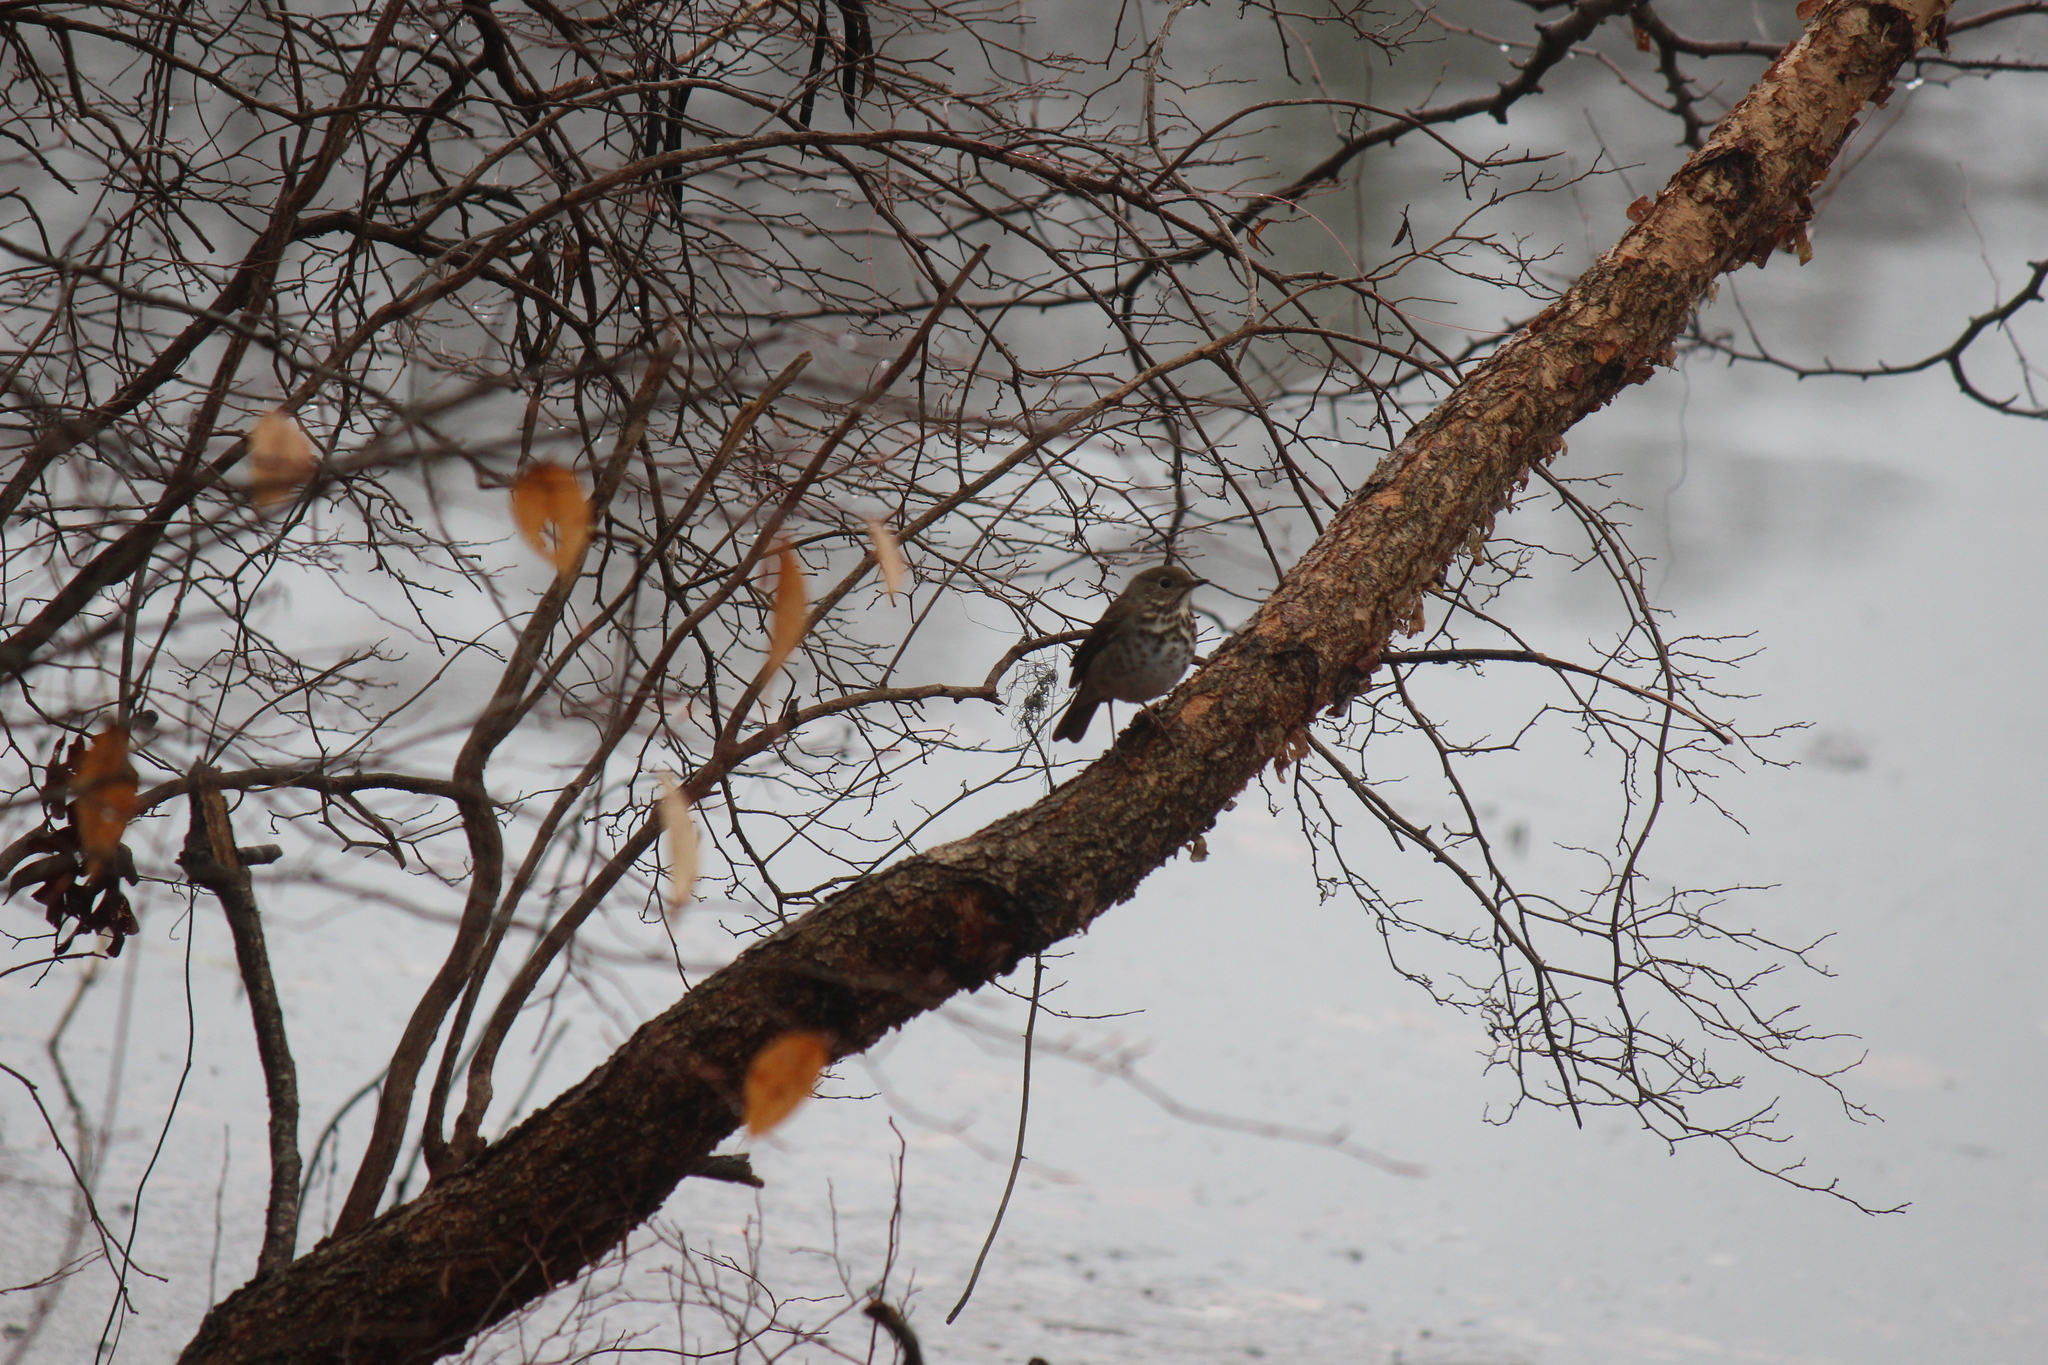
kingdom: Animalia
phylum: Chordata
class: Aves
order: Passeriformes
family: Turdidae
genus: Catharus
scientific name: Catharus guttatus
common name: Hermit thrush
